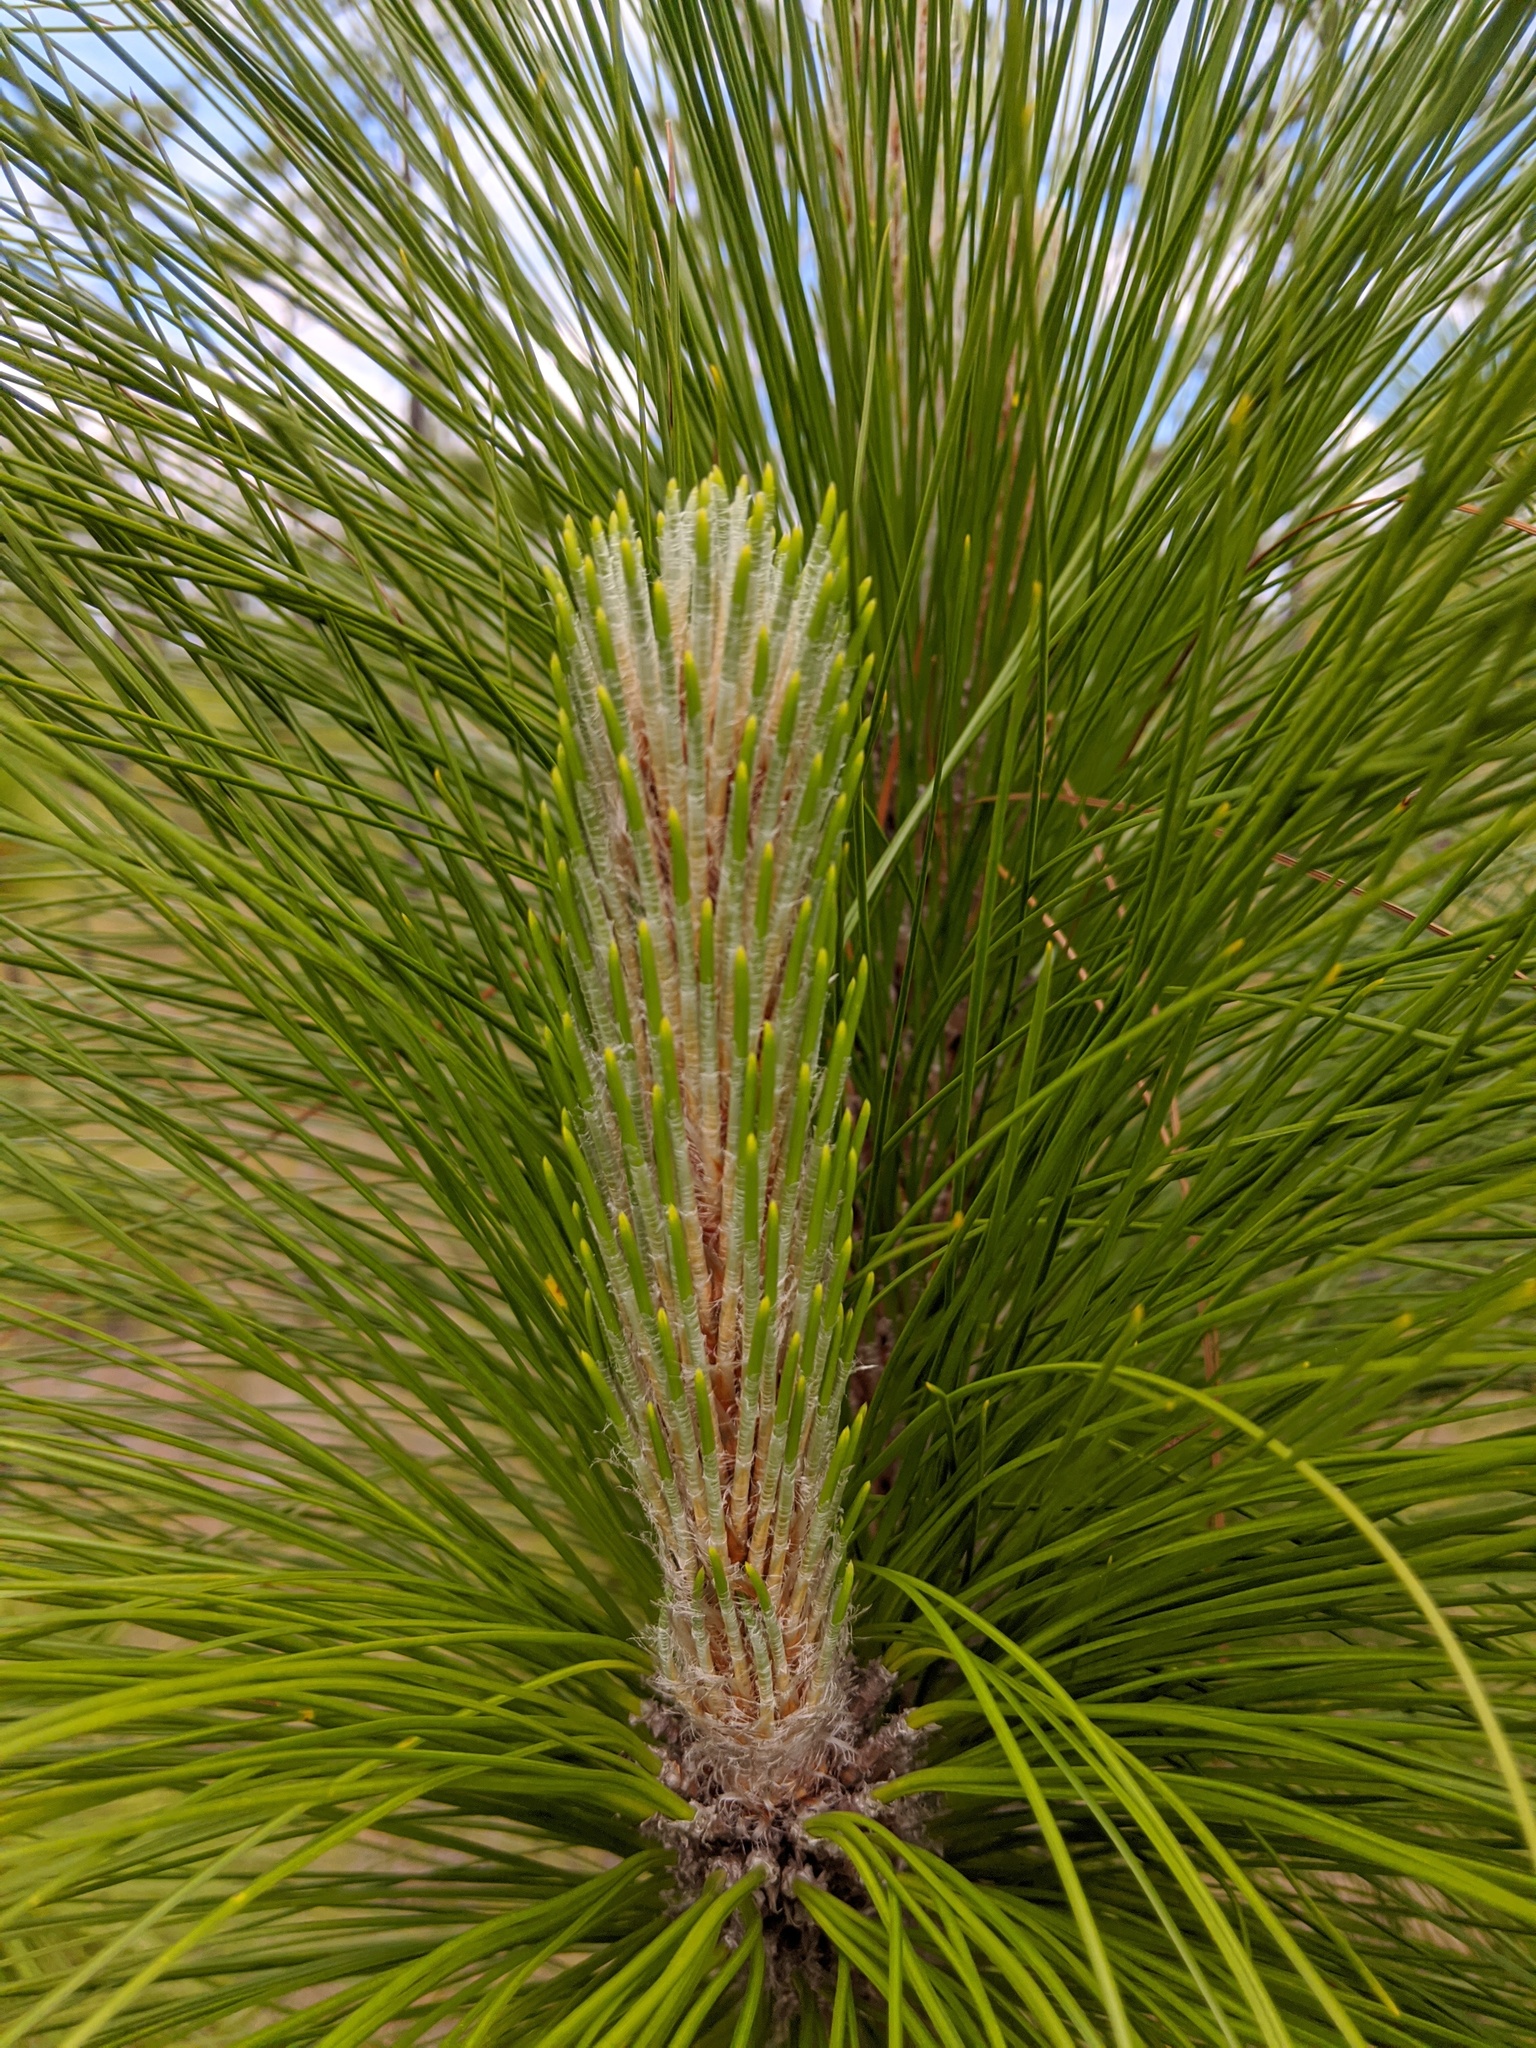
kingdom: Plantae
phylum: Tracheophyta
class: Pinopsida
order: Pinales
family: Pinaceae
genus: Pinus
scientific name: Pinus palustris
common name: Longleaf pine
